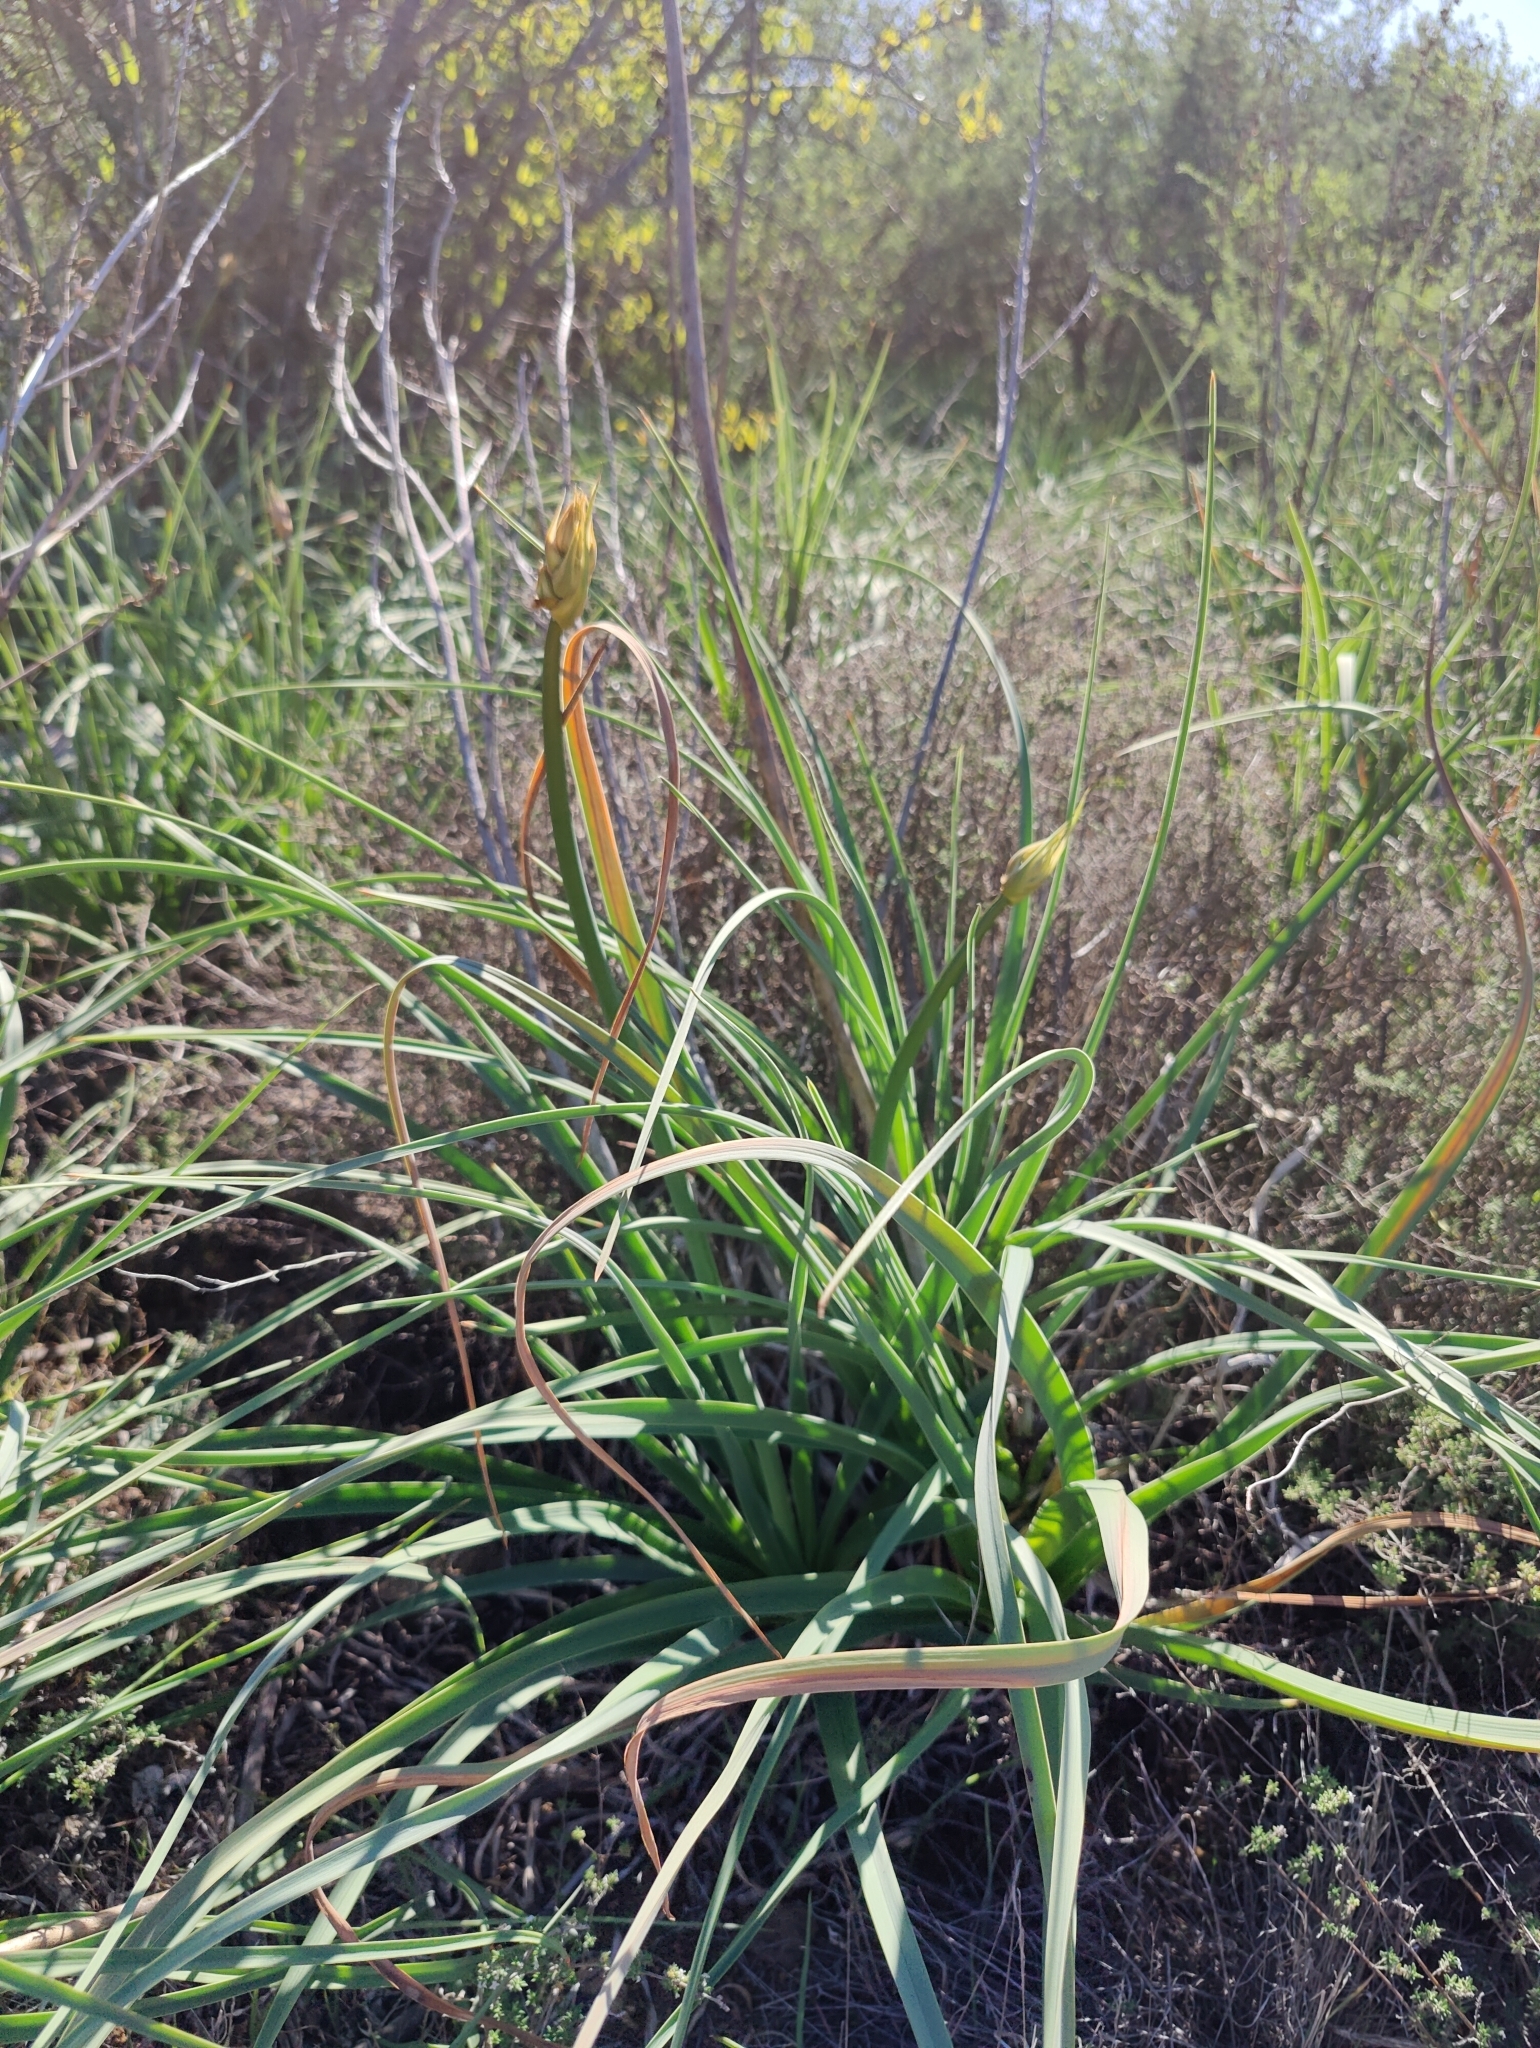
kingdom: Plantae
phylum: Tracheophyta
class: Liliopsida
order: Asparagales
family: Asphodelaceae
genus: Asphodelus
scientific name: Asphodelus ramosus
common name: Silverrod
